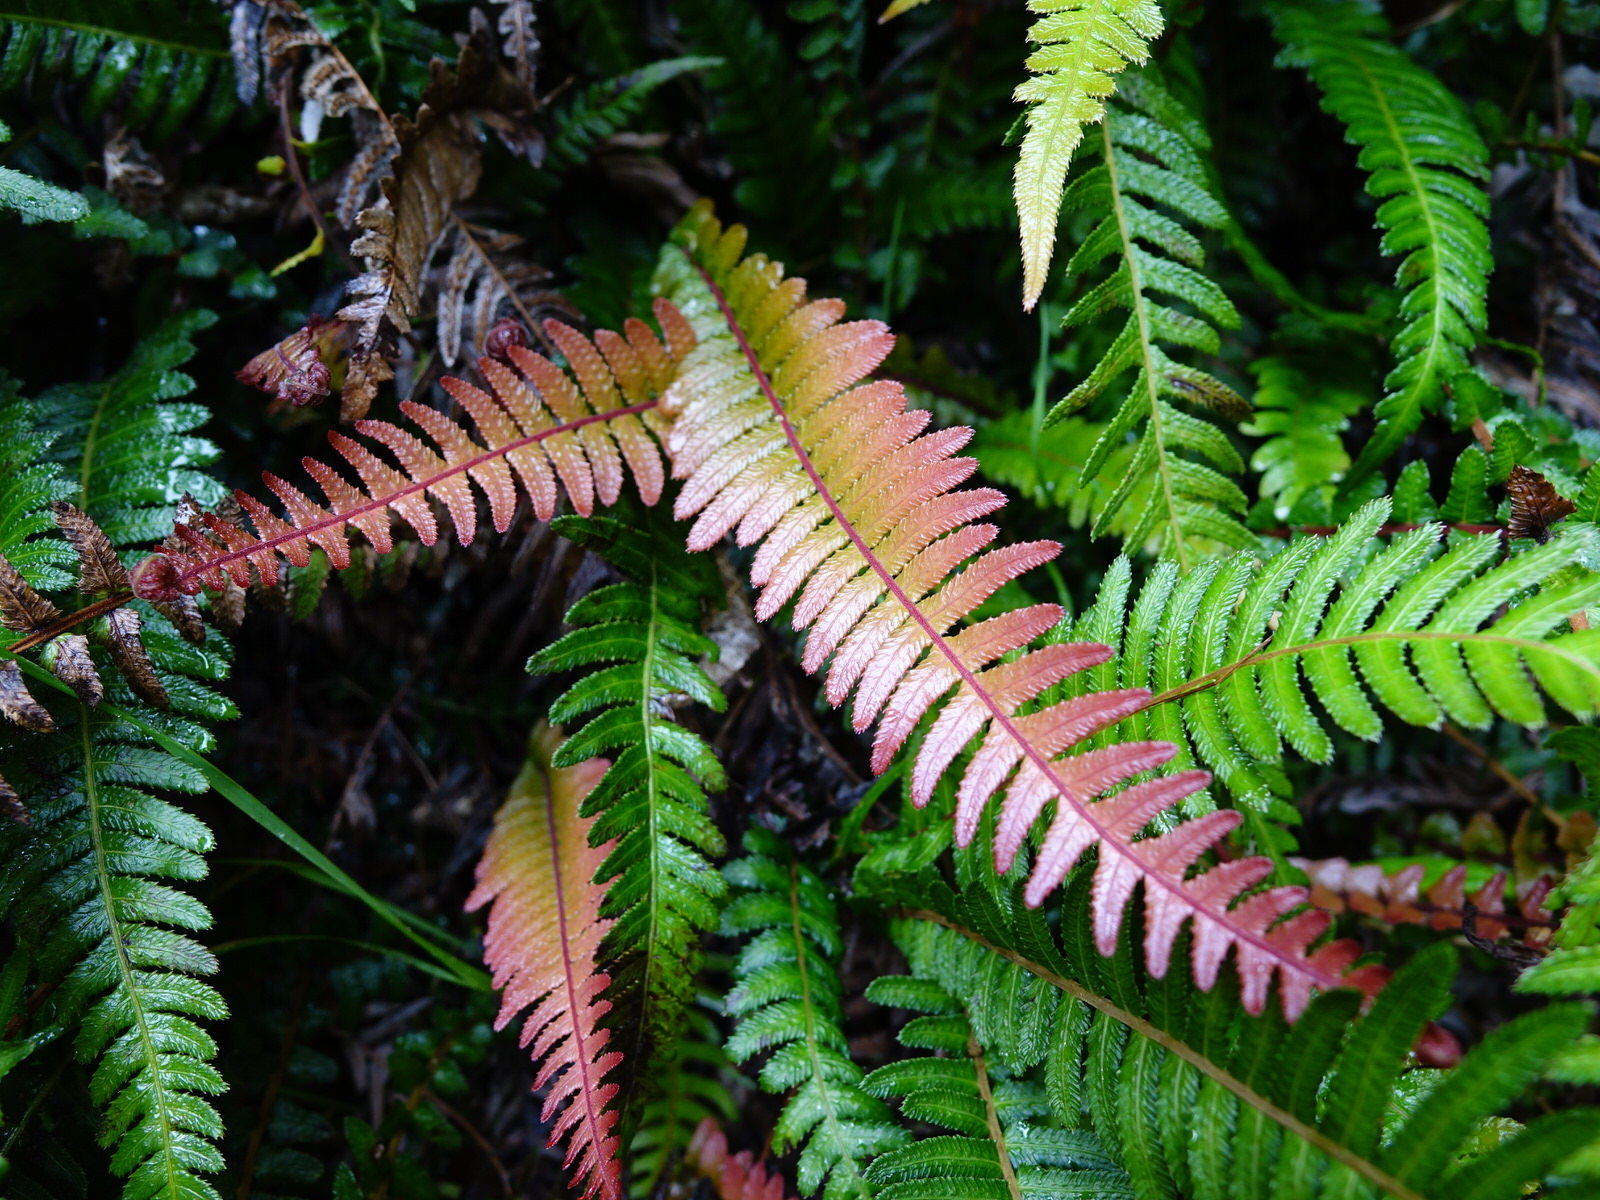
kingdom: Plantae
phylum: Tracheophyta
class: Polypodiopsida
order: Polypodiales
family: Blechnaceae
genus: Doodia
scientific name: Doodia australis
